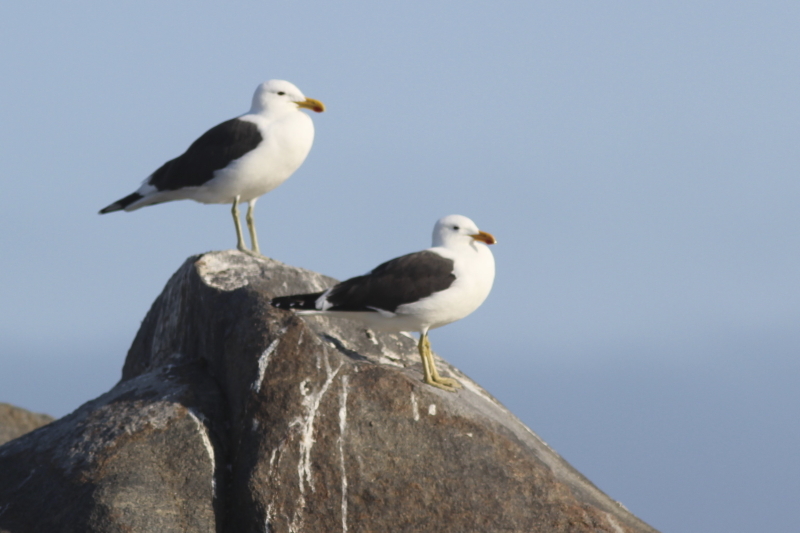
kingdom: Animalia
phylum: Chordata
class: Aves
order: Charadriiformes
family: Laridae
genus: Larus
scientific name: Larus dominicanus
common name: Kelp gull
